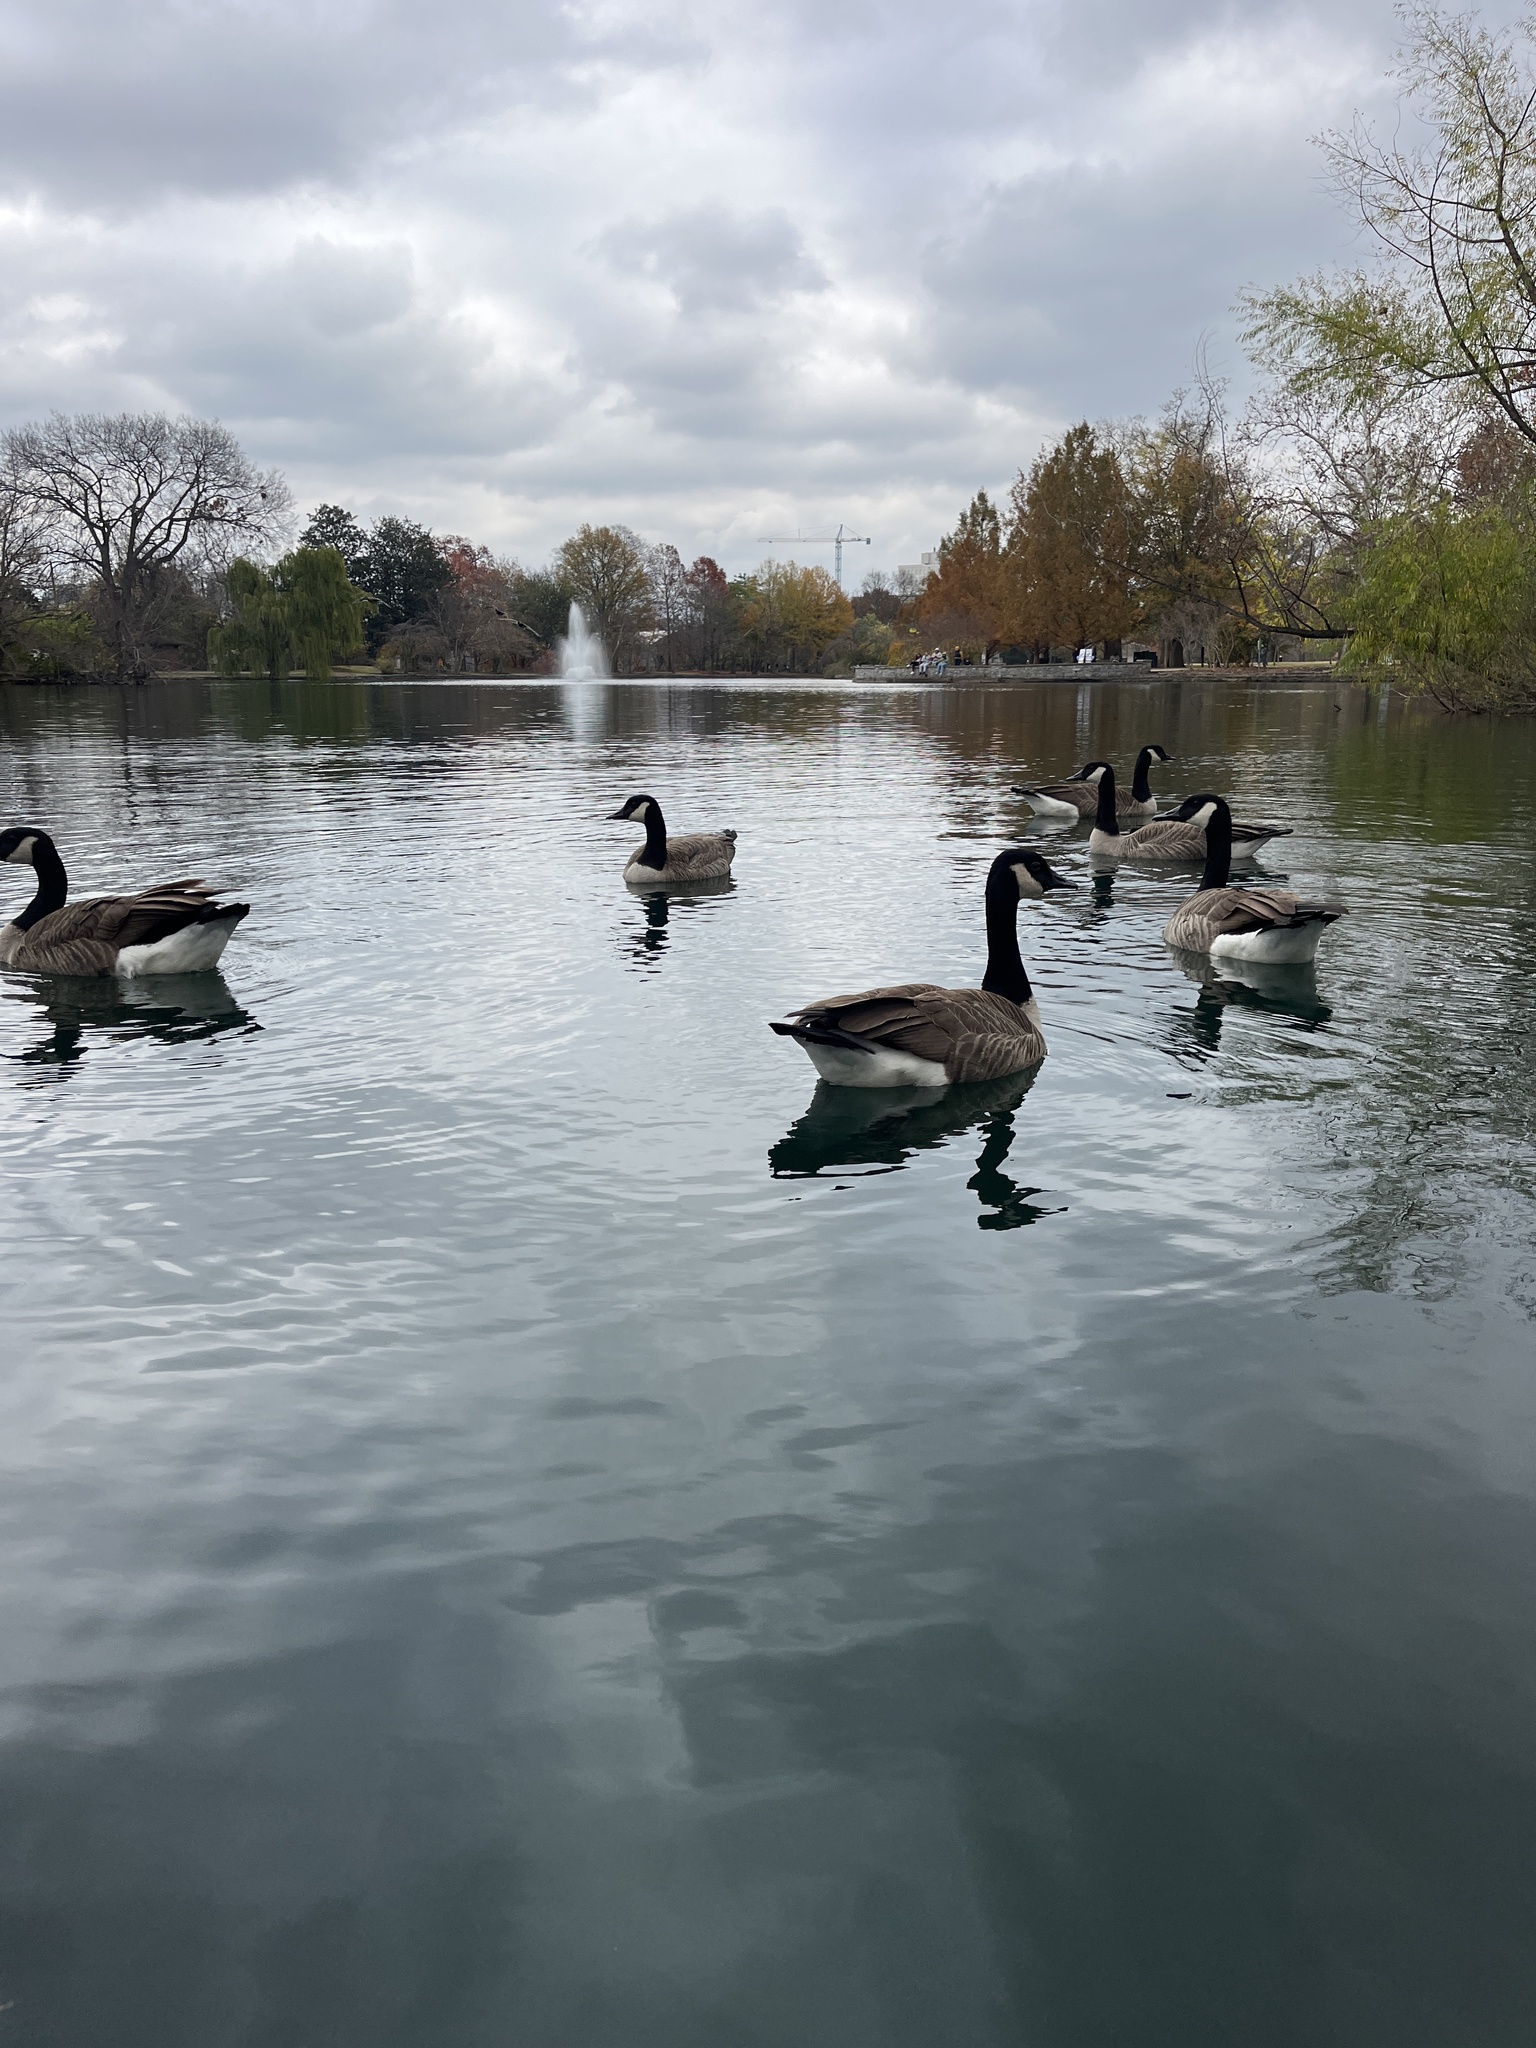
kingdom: Animalia
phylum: Chordata
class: Aves
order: Anseriformes
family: Anatidae
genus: Branta
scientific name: Branta canadensis
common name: Canada goose
